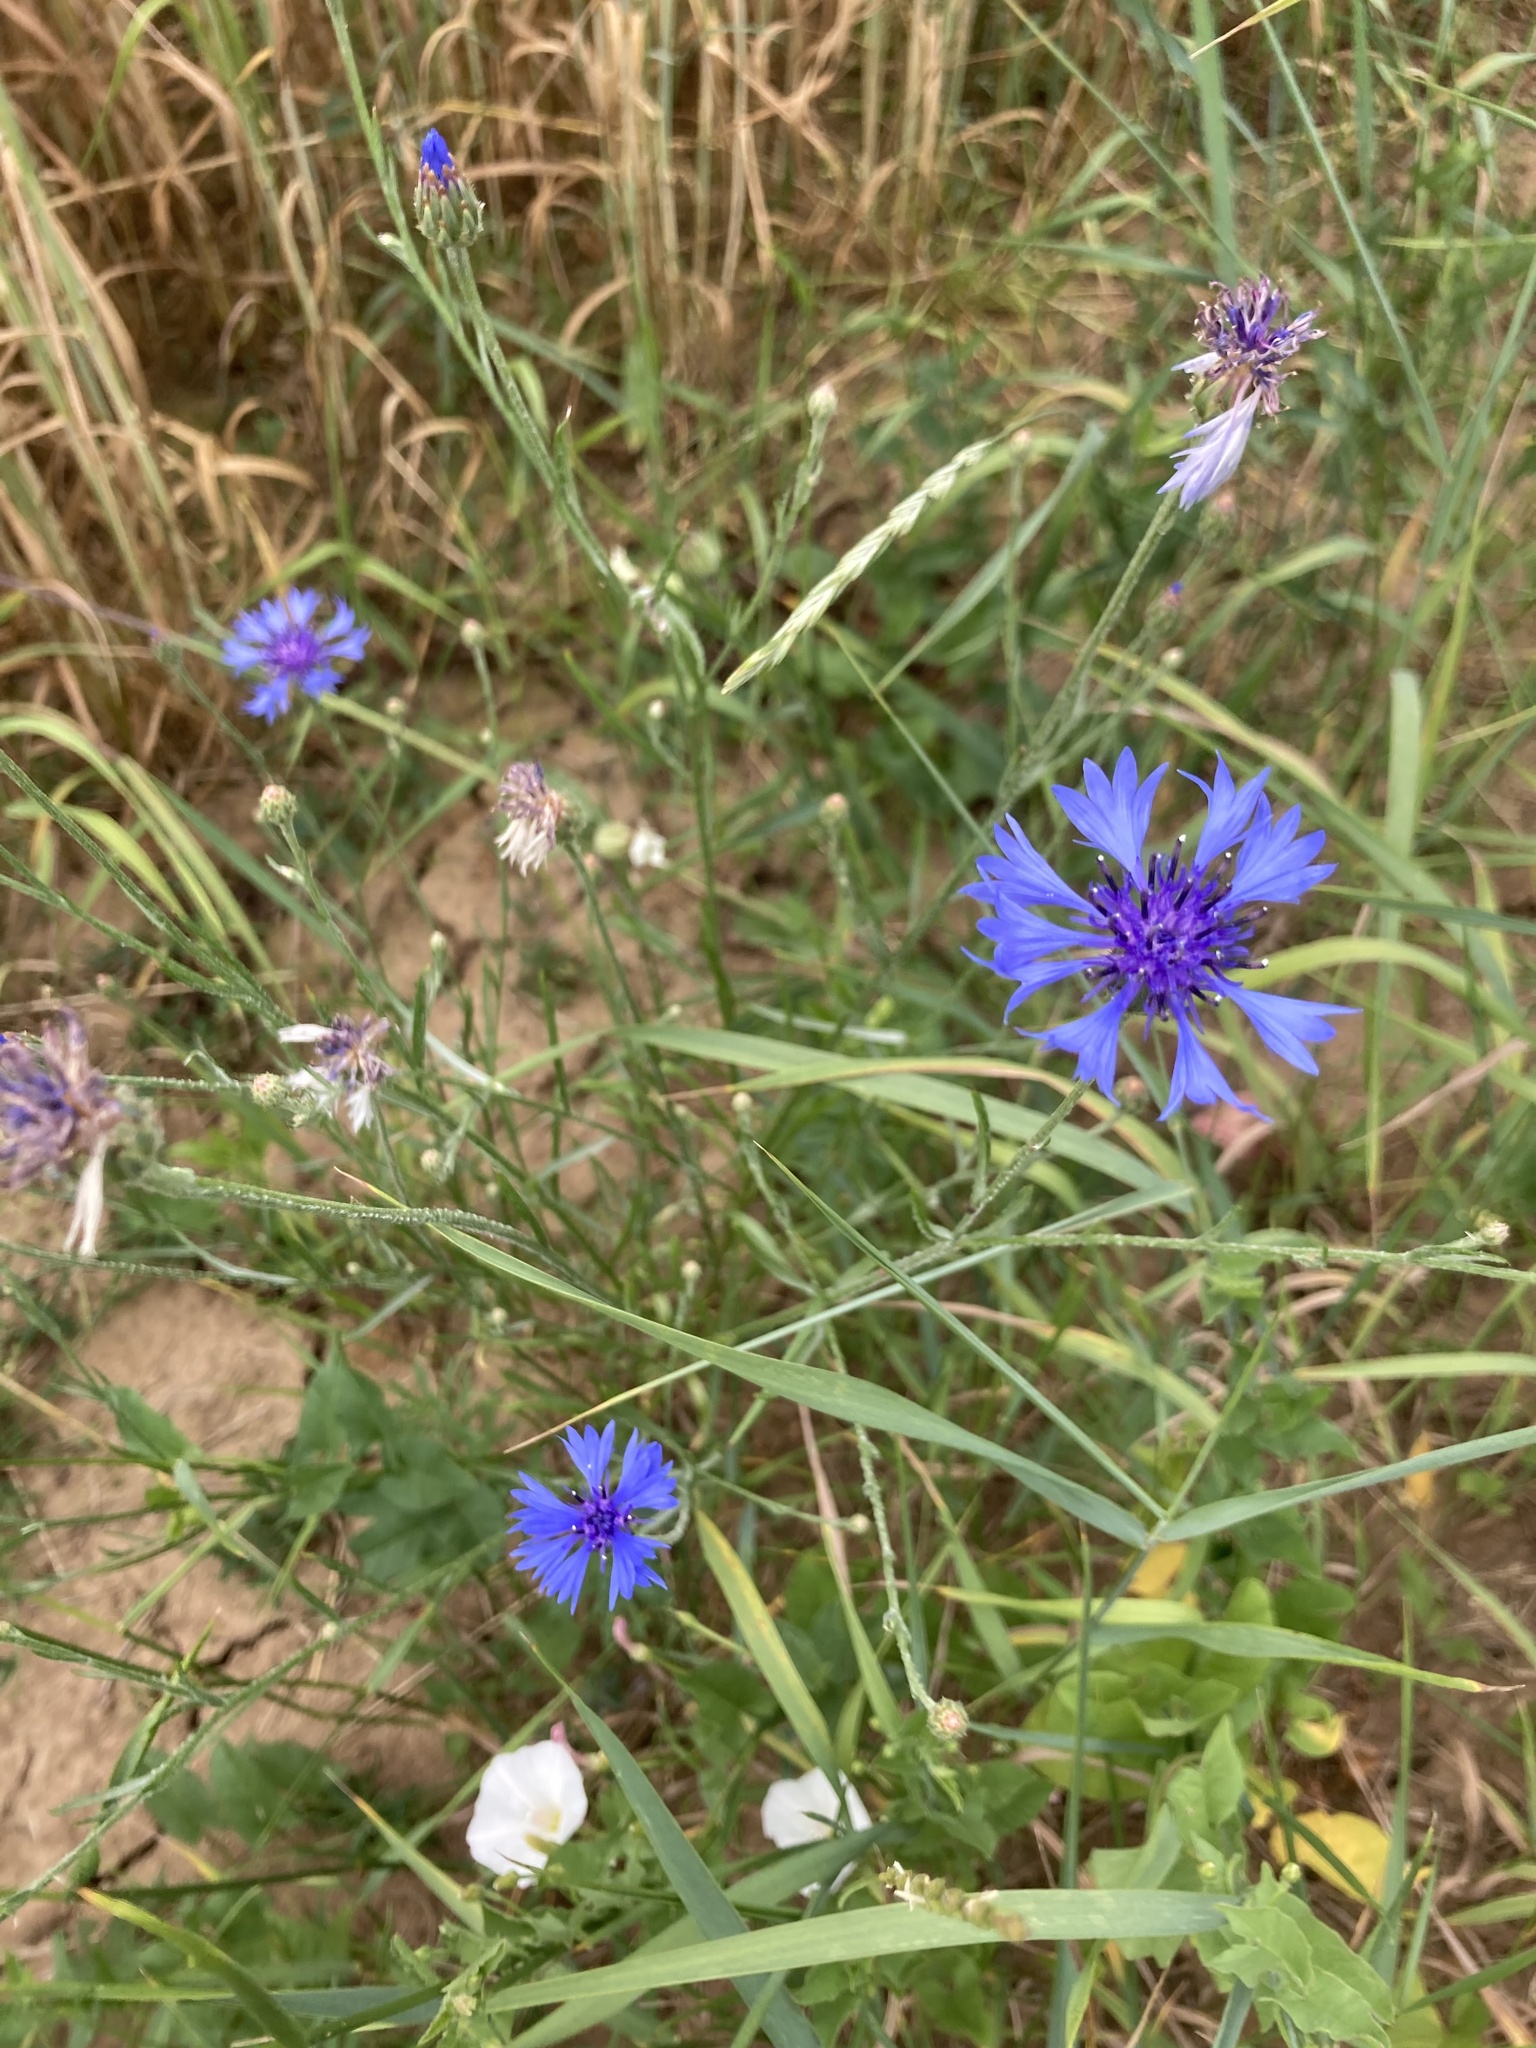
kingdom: Plantae
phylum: Tracheophyta
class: Magnoliopsida
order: Asterales
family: Asteraceae
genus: Centaurea
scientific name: Centaurea cyanus
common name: Cornflower
